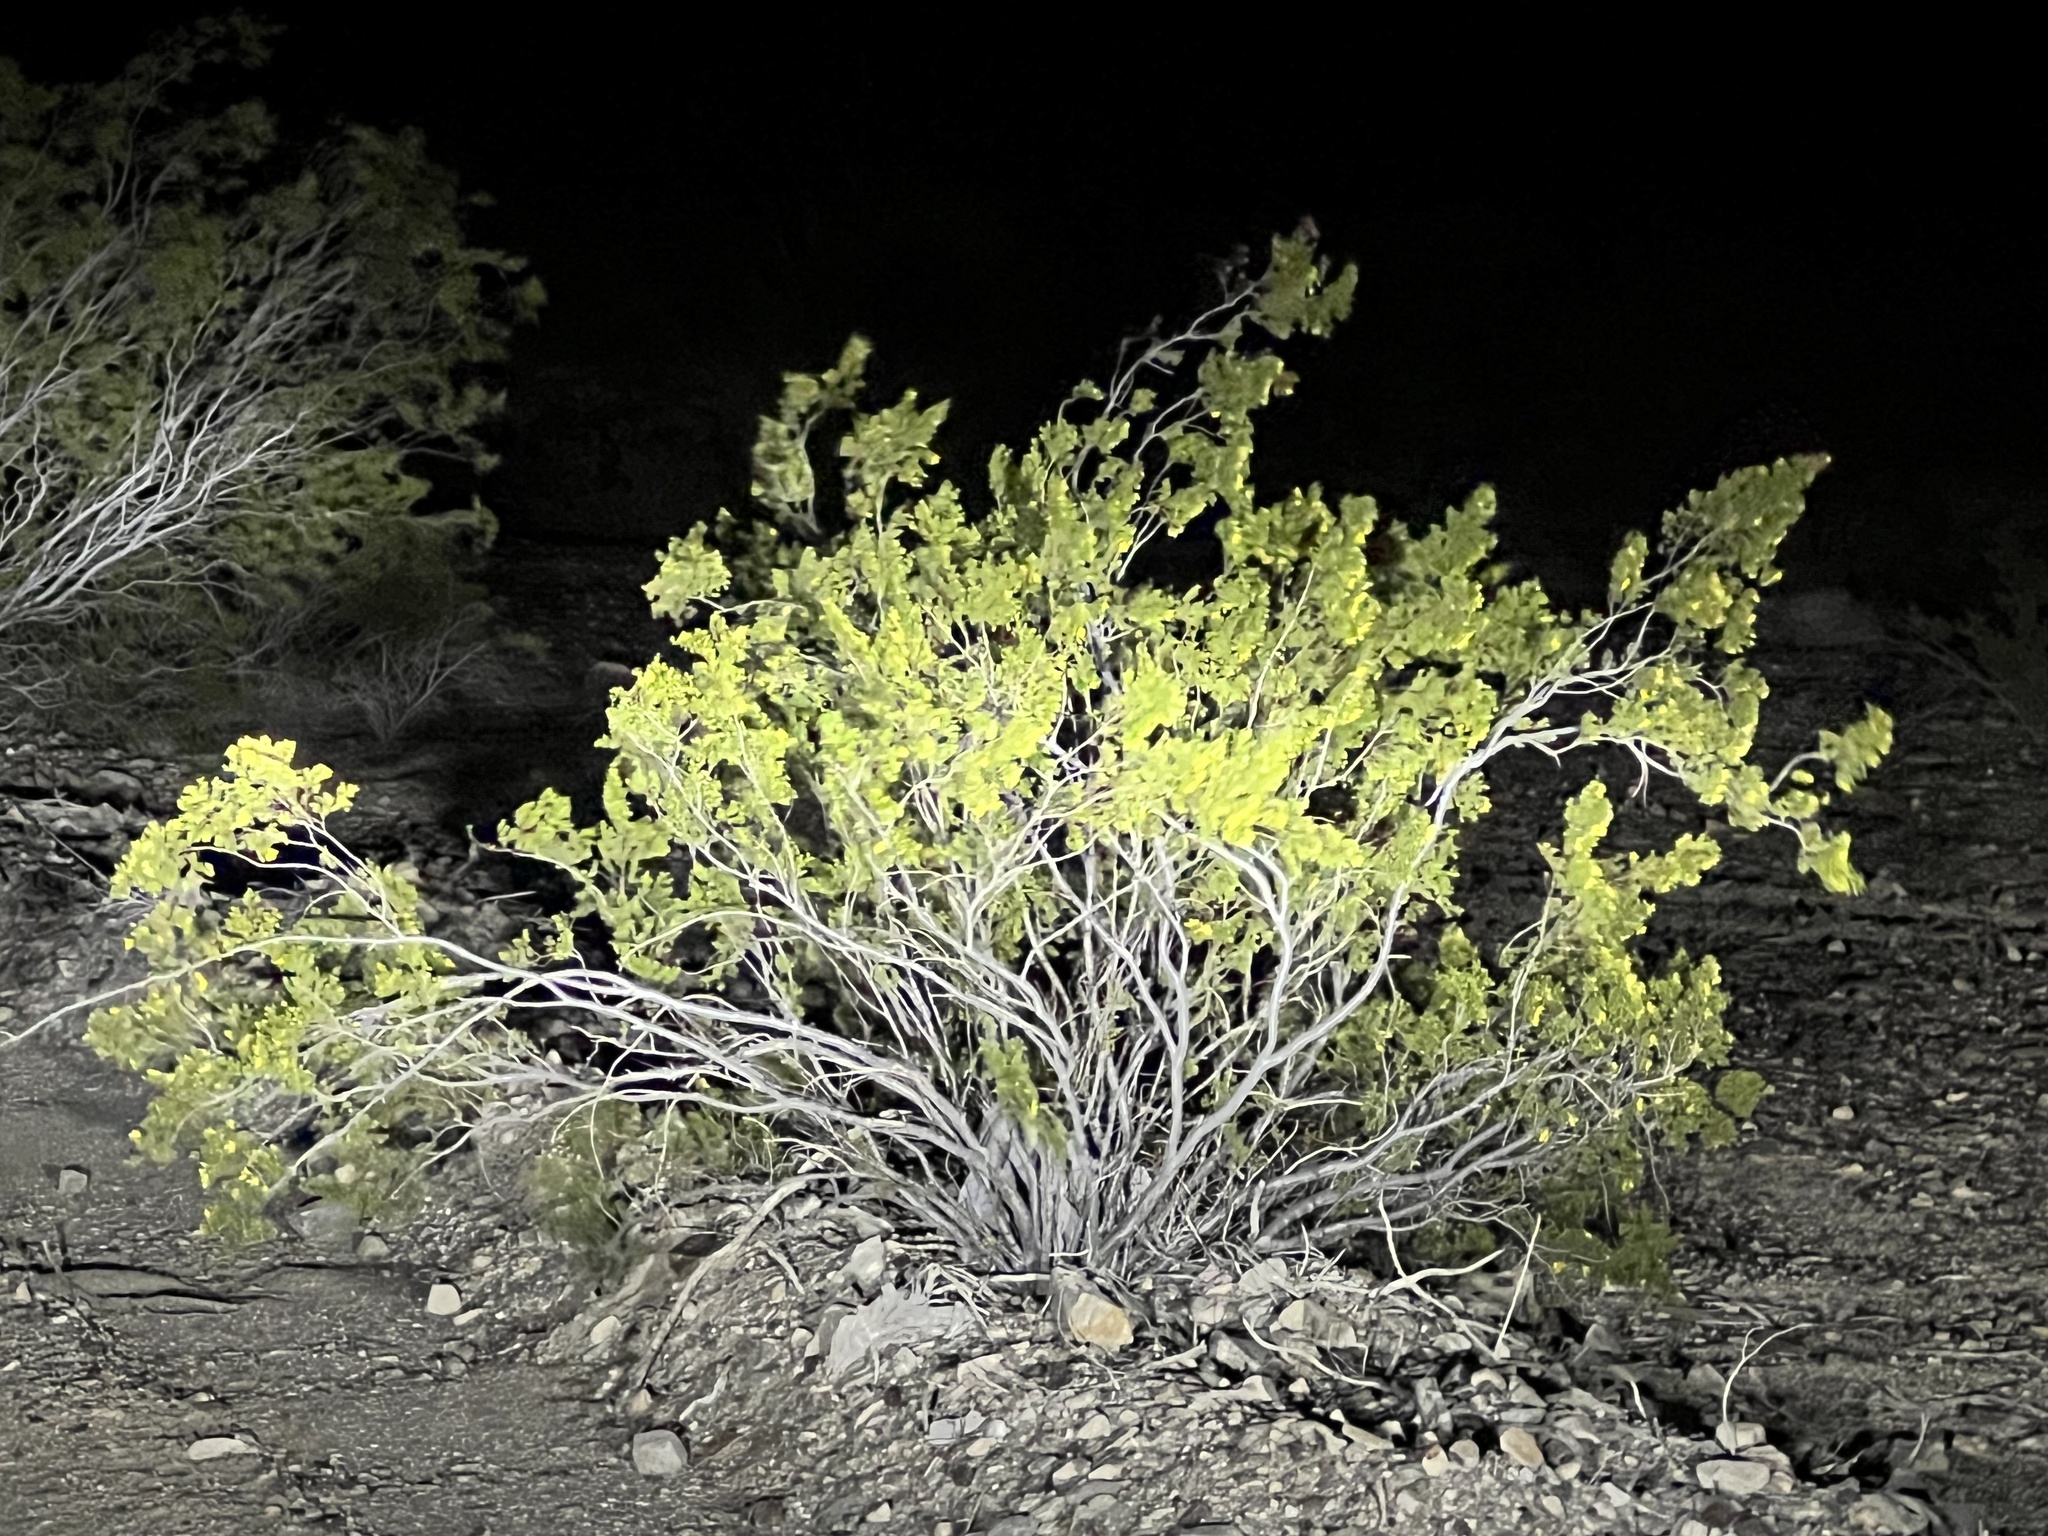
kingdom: Plantae
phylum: Tracheophyta
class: Magnoliopsida
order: Zygophyllales
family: Zygophyllaceae
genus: Larrea
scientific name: Larrea tridentata
